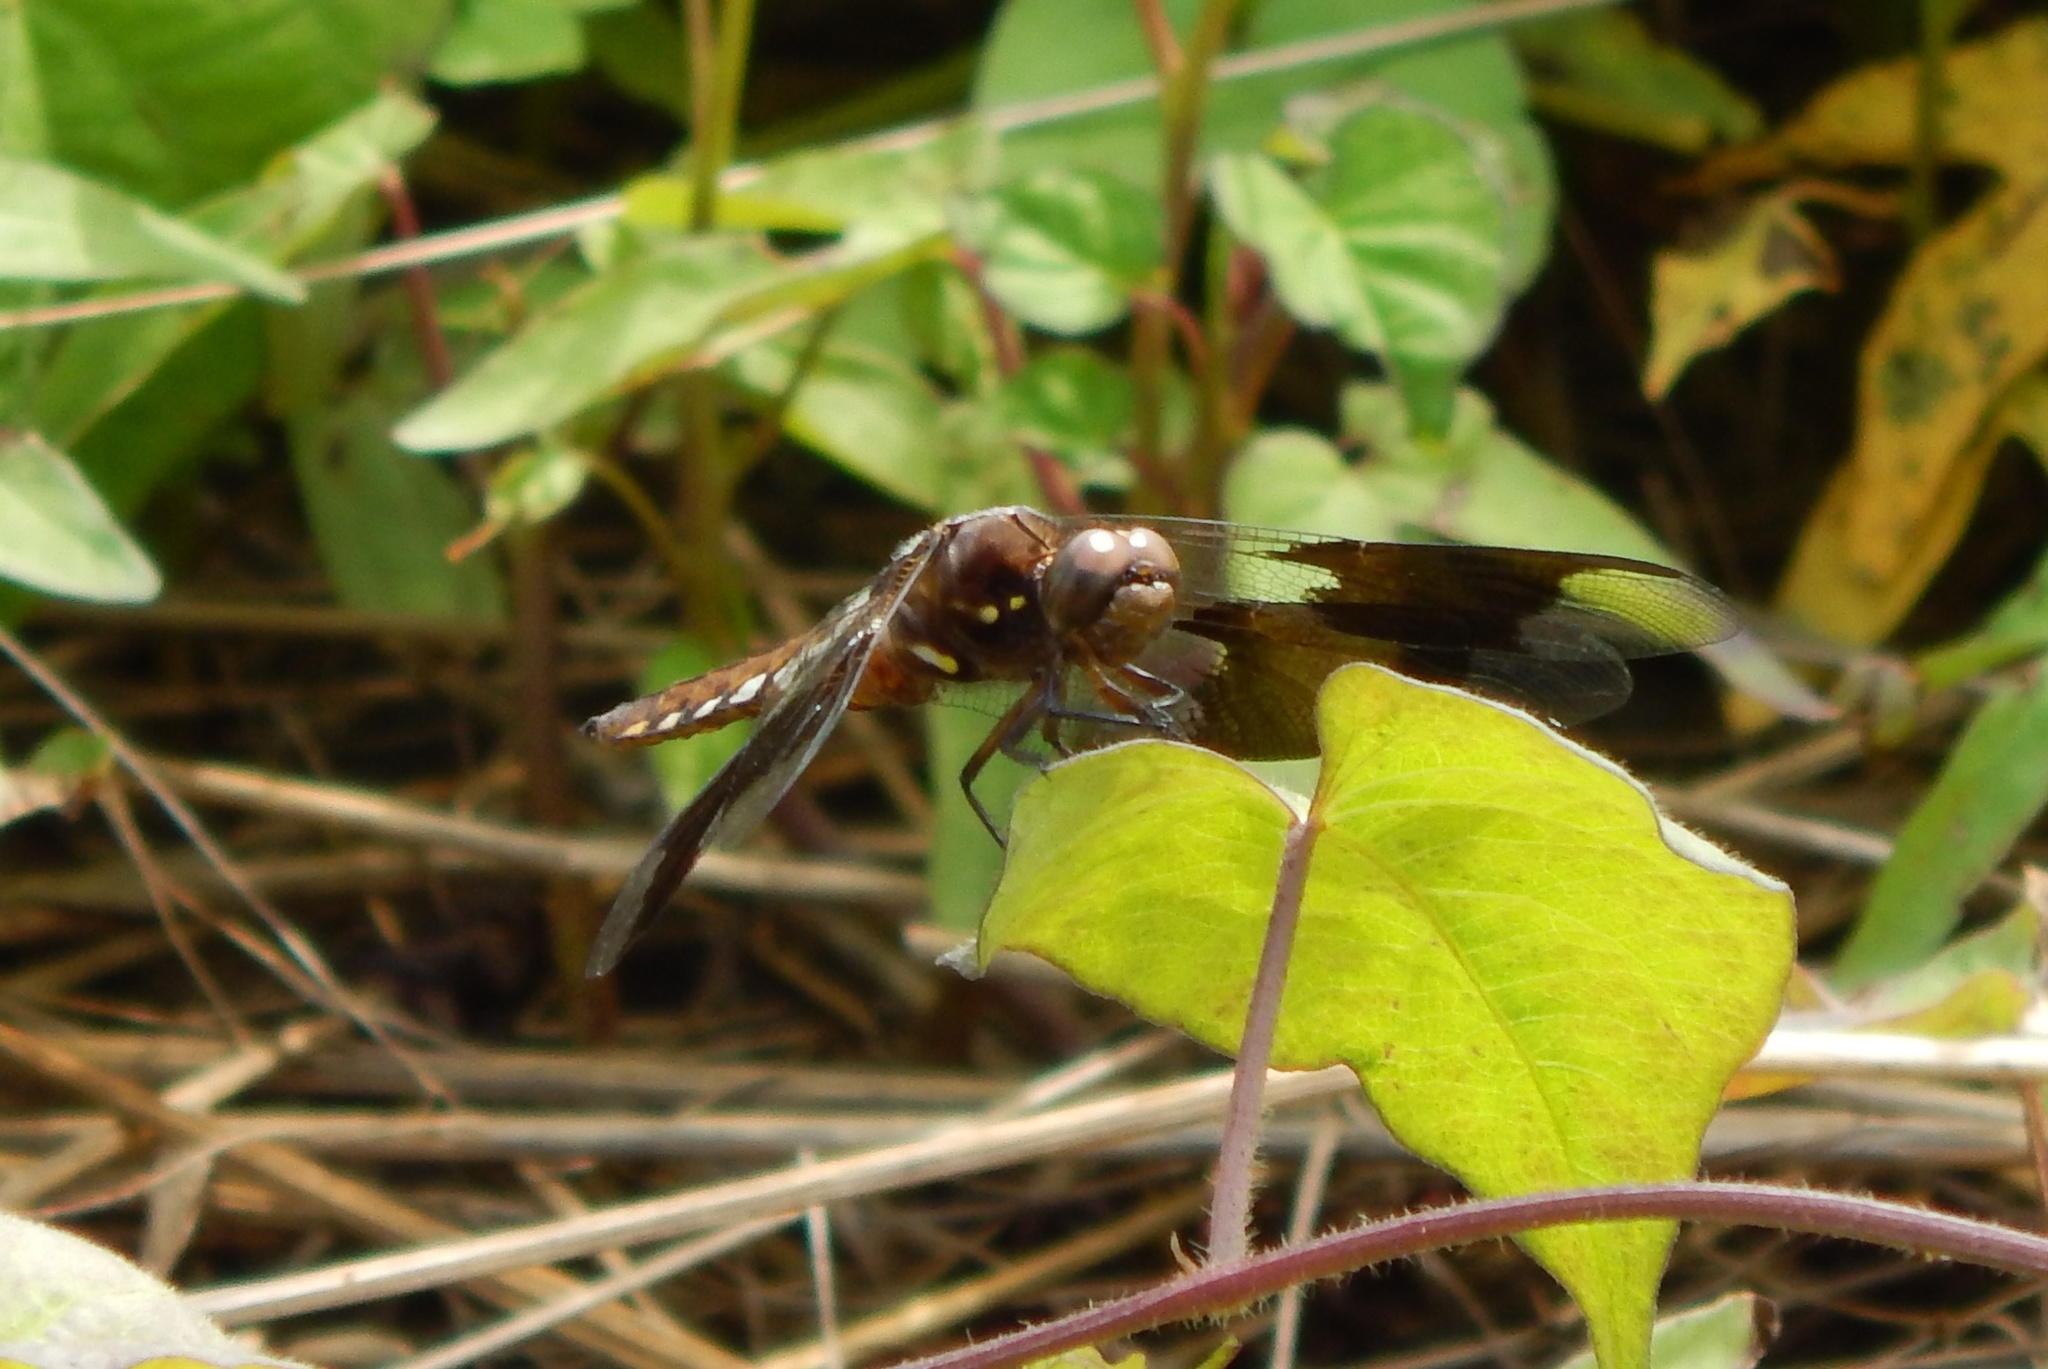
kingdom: Animalia
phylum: Arthropoda
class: Insecta
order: Odonata
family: Libellulidae
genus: Plathemis
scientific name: Plathemis lydia
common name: Common whitetail
